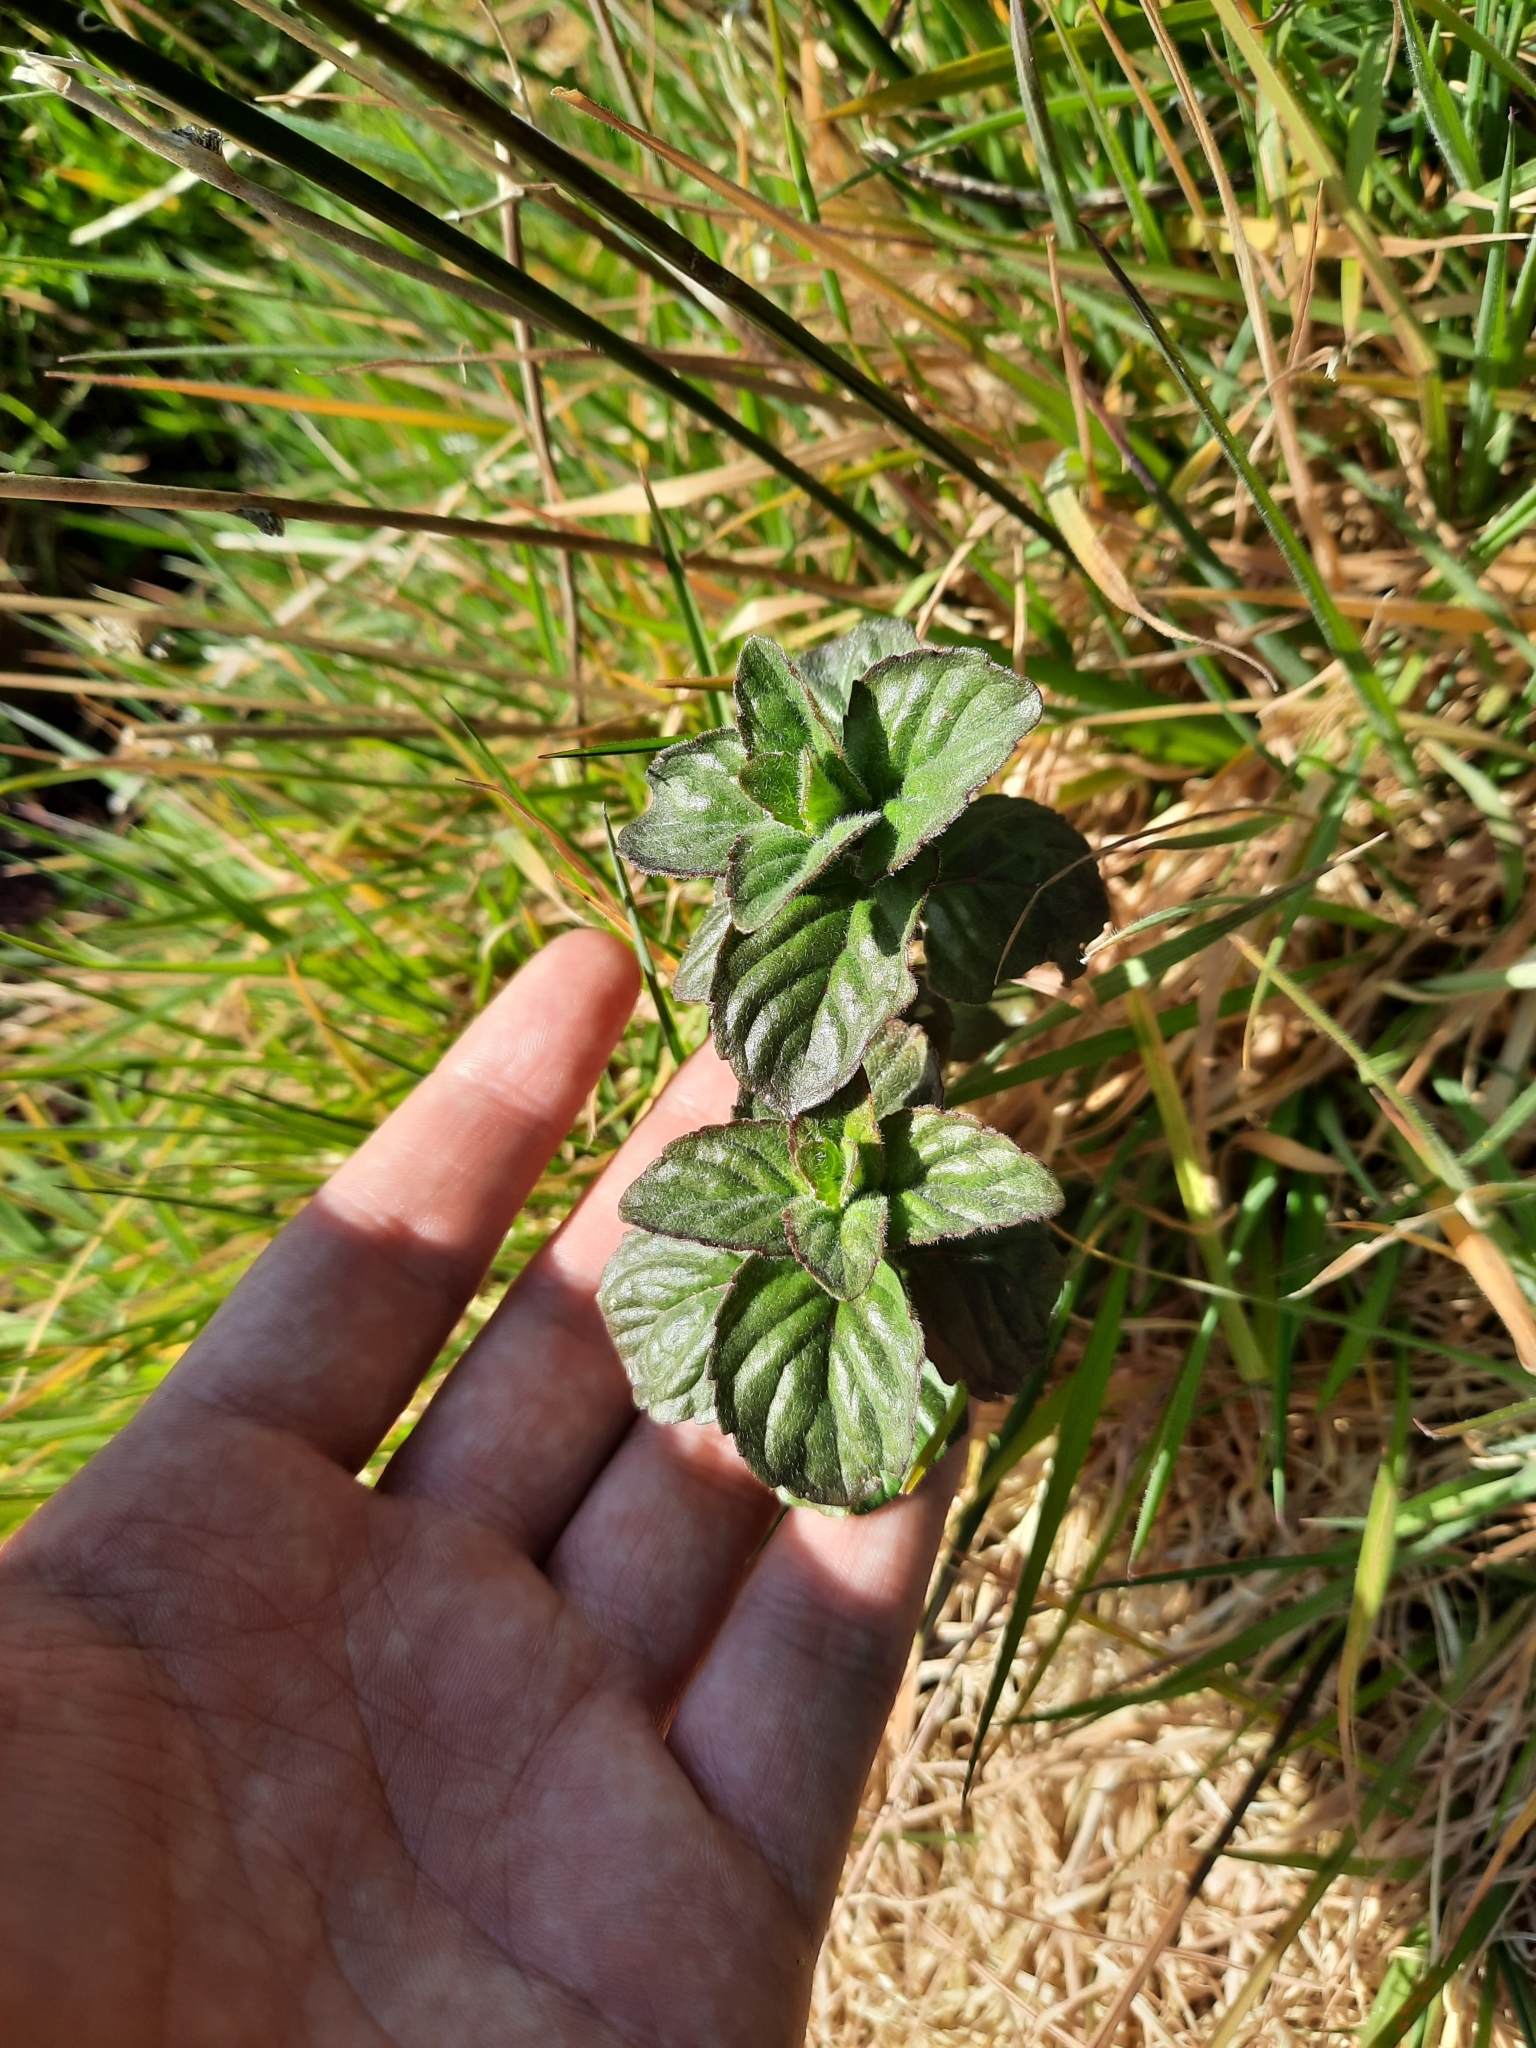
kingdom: Plantae
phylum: Tracheophyta
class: Magnoliopsida
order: Lamiales
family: Lamiaceae
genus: Mentha
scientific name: Mentha aquatica
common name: Water mint
